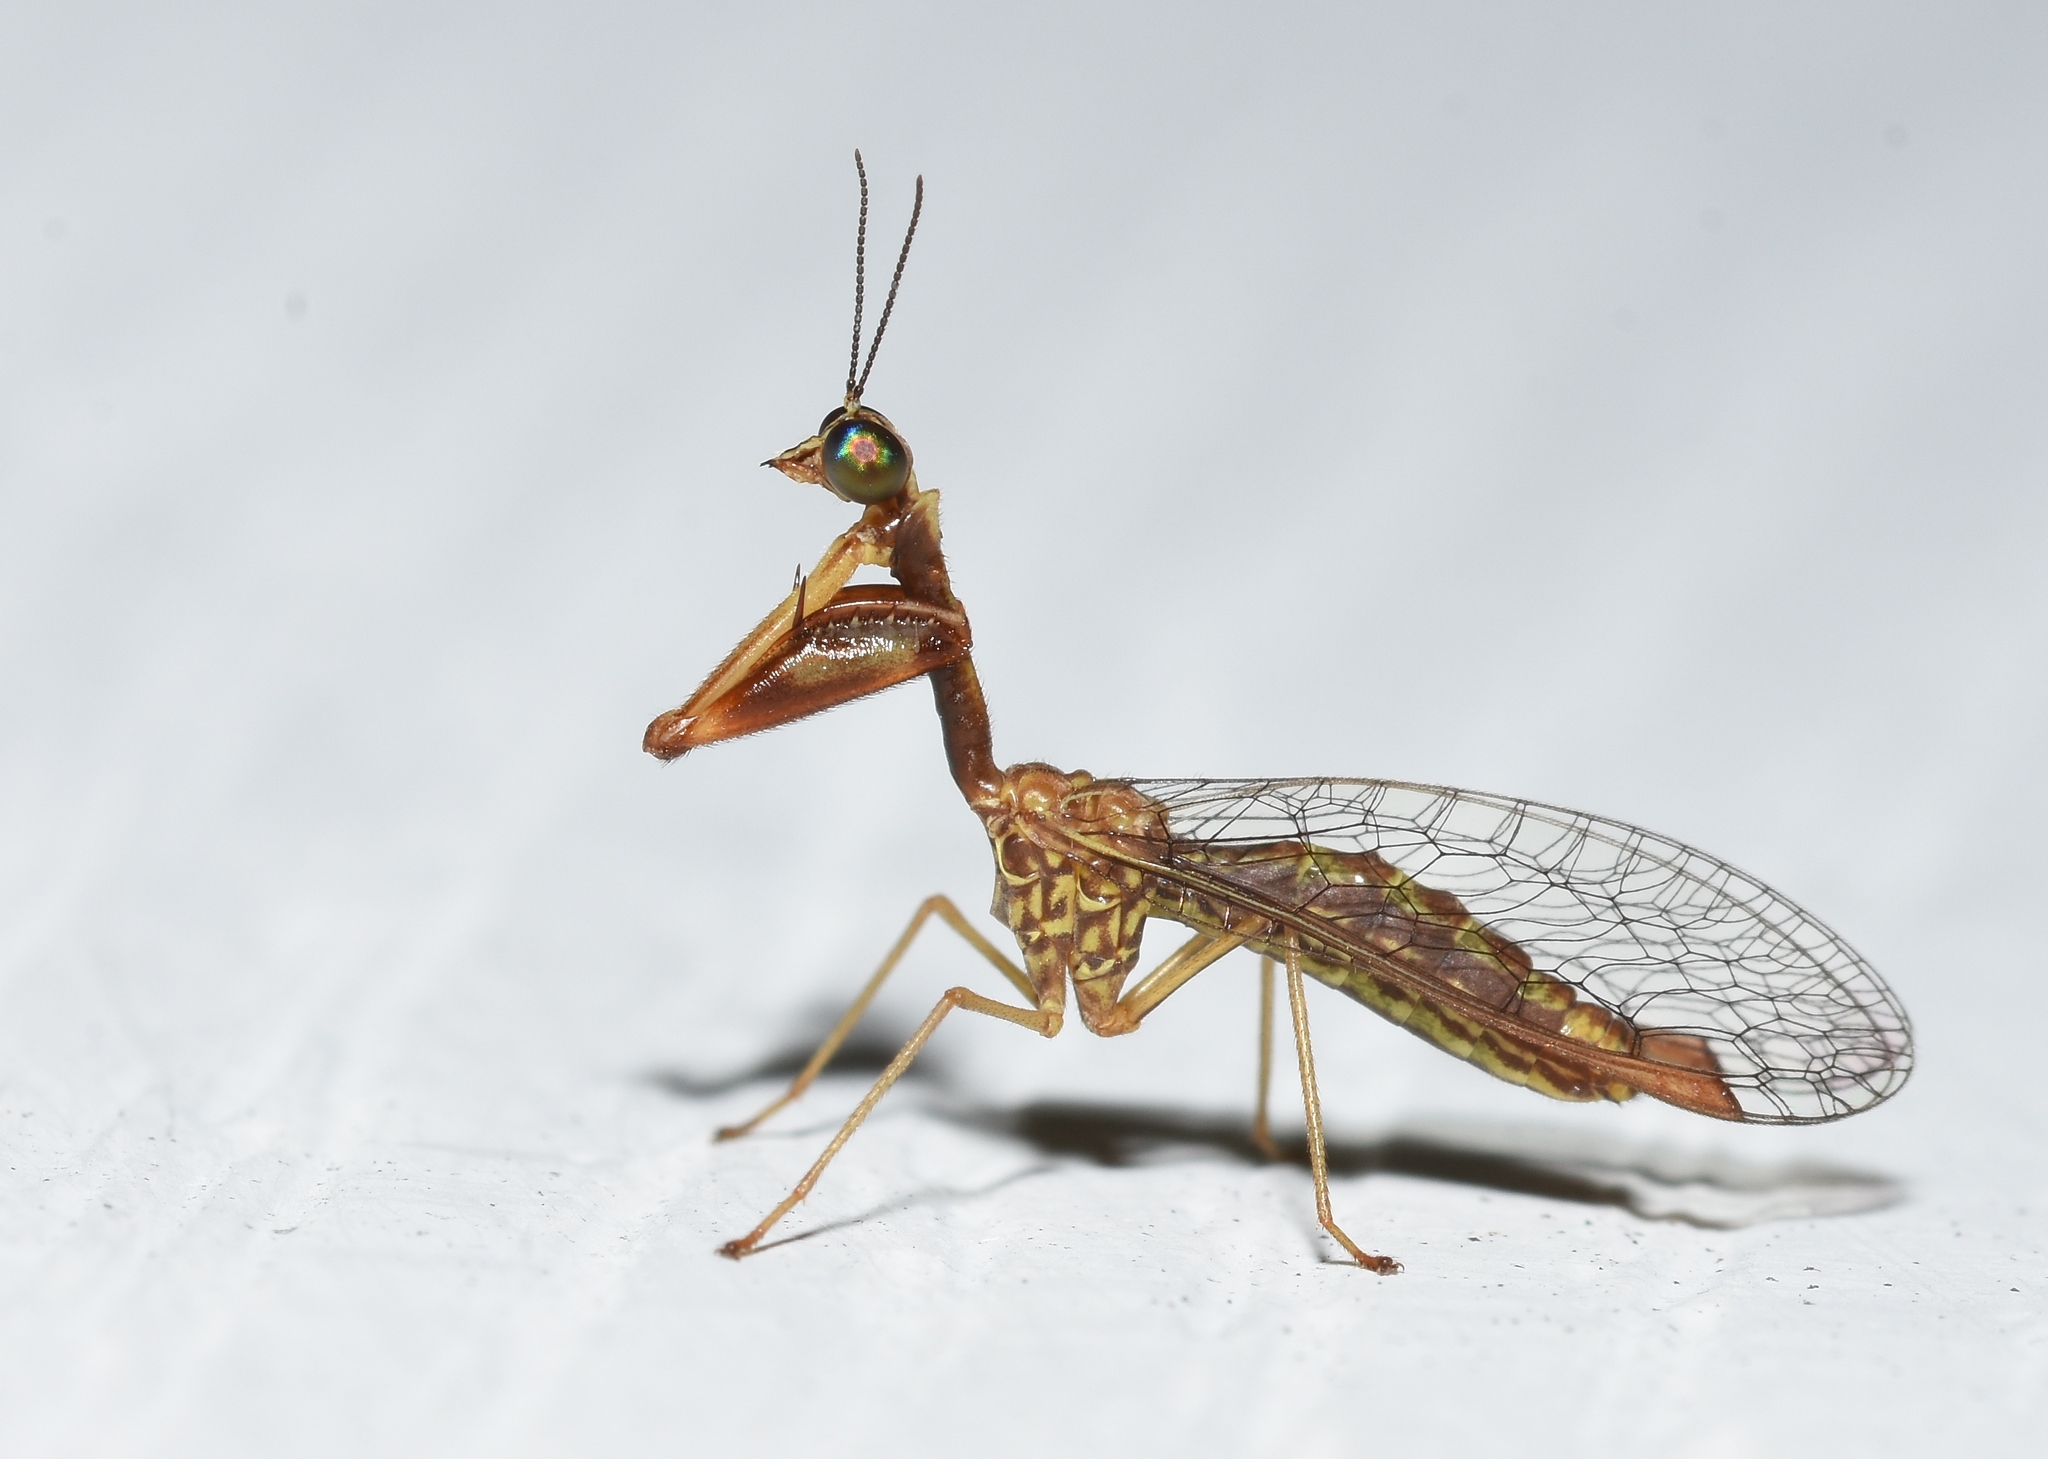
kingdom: Animalia
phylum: Arthropoda
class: Insecta
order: Neuroptera
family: Mantispidae
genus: Leptomantispa
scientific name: Leptomantispa pulchella
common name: Stevens's mantidfly
